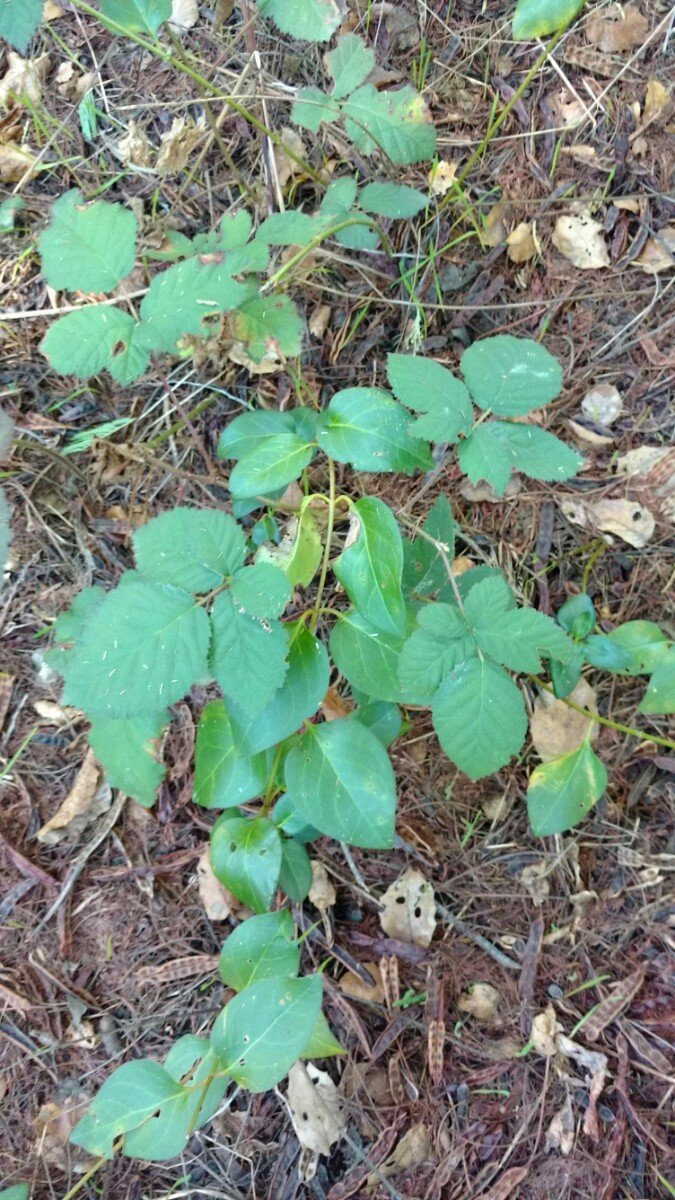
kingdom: Plantae
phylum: Tracheophyta
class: Magnoliopsida
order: Rosales
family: Rosaceae
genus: Rubus
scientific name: Rubus armeniacus
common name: Himalayan blackberry
